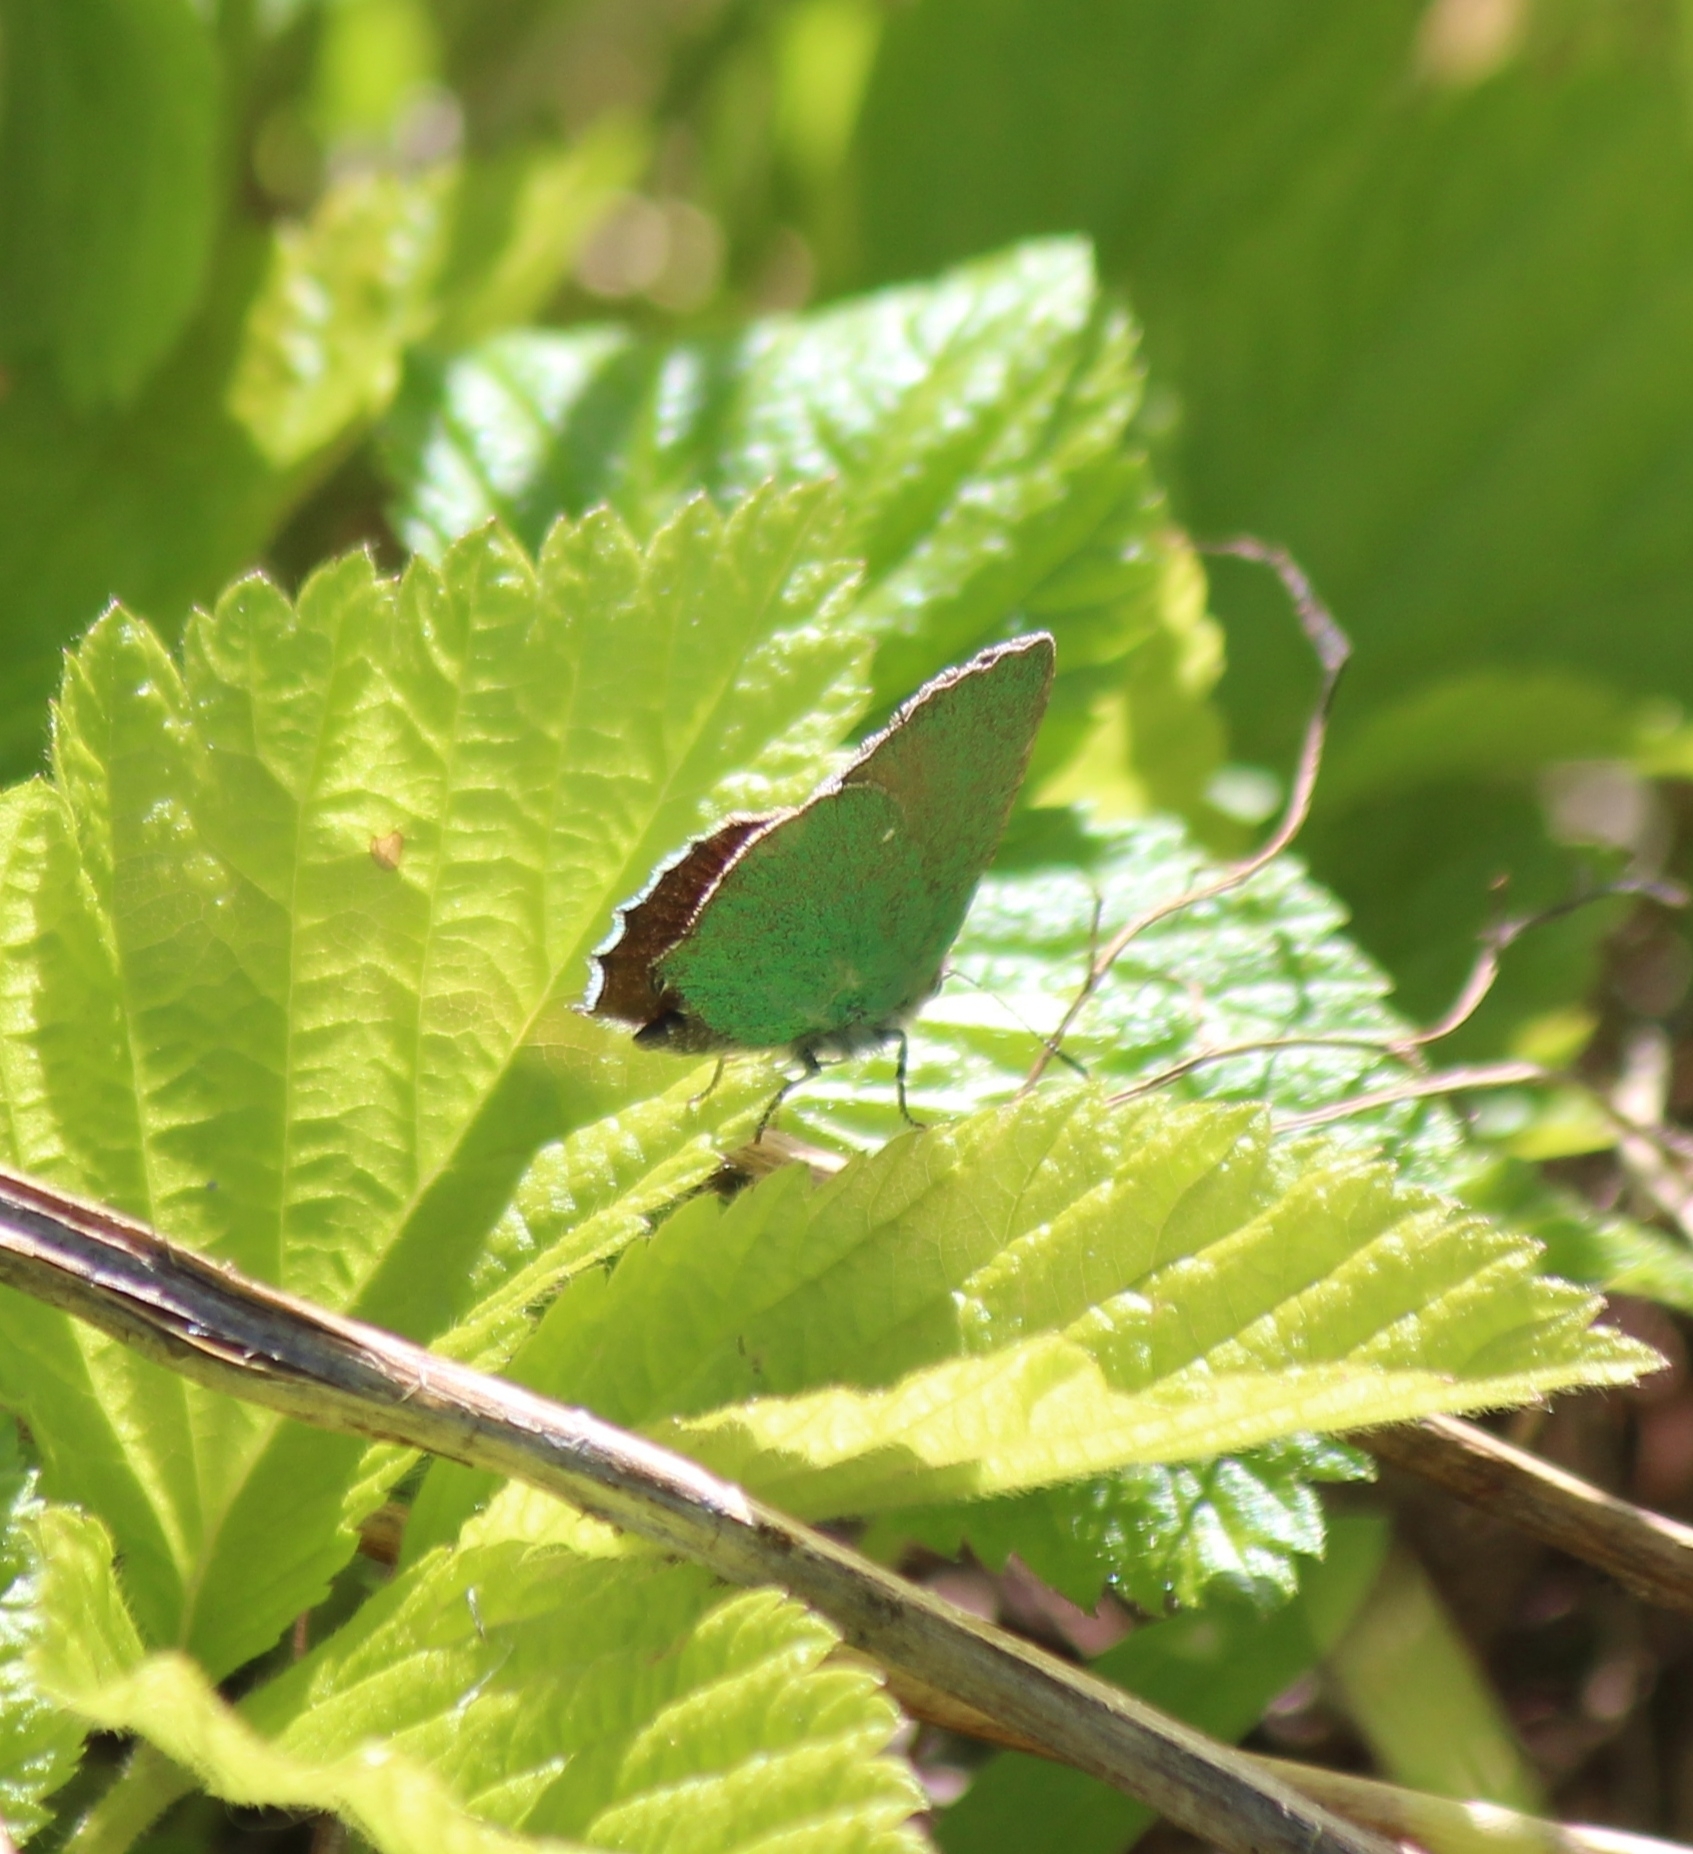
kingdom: Animalia
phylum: Arthropoda
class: Insecta
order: Lepidoptera
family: Lycaenidae
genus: Callophrys
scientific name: Callophrys rubi
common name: Green hairstreak
